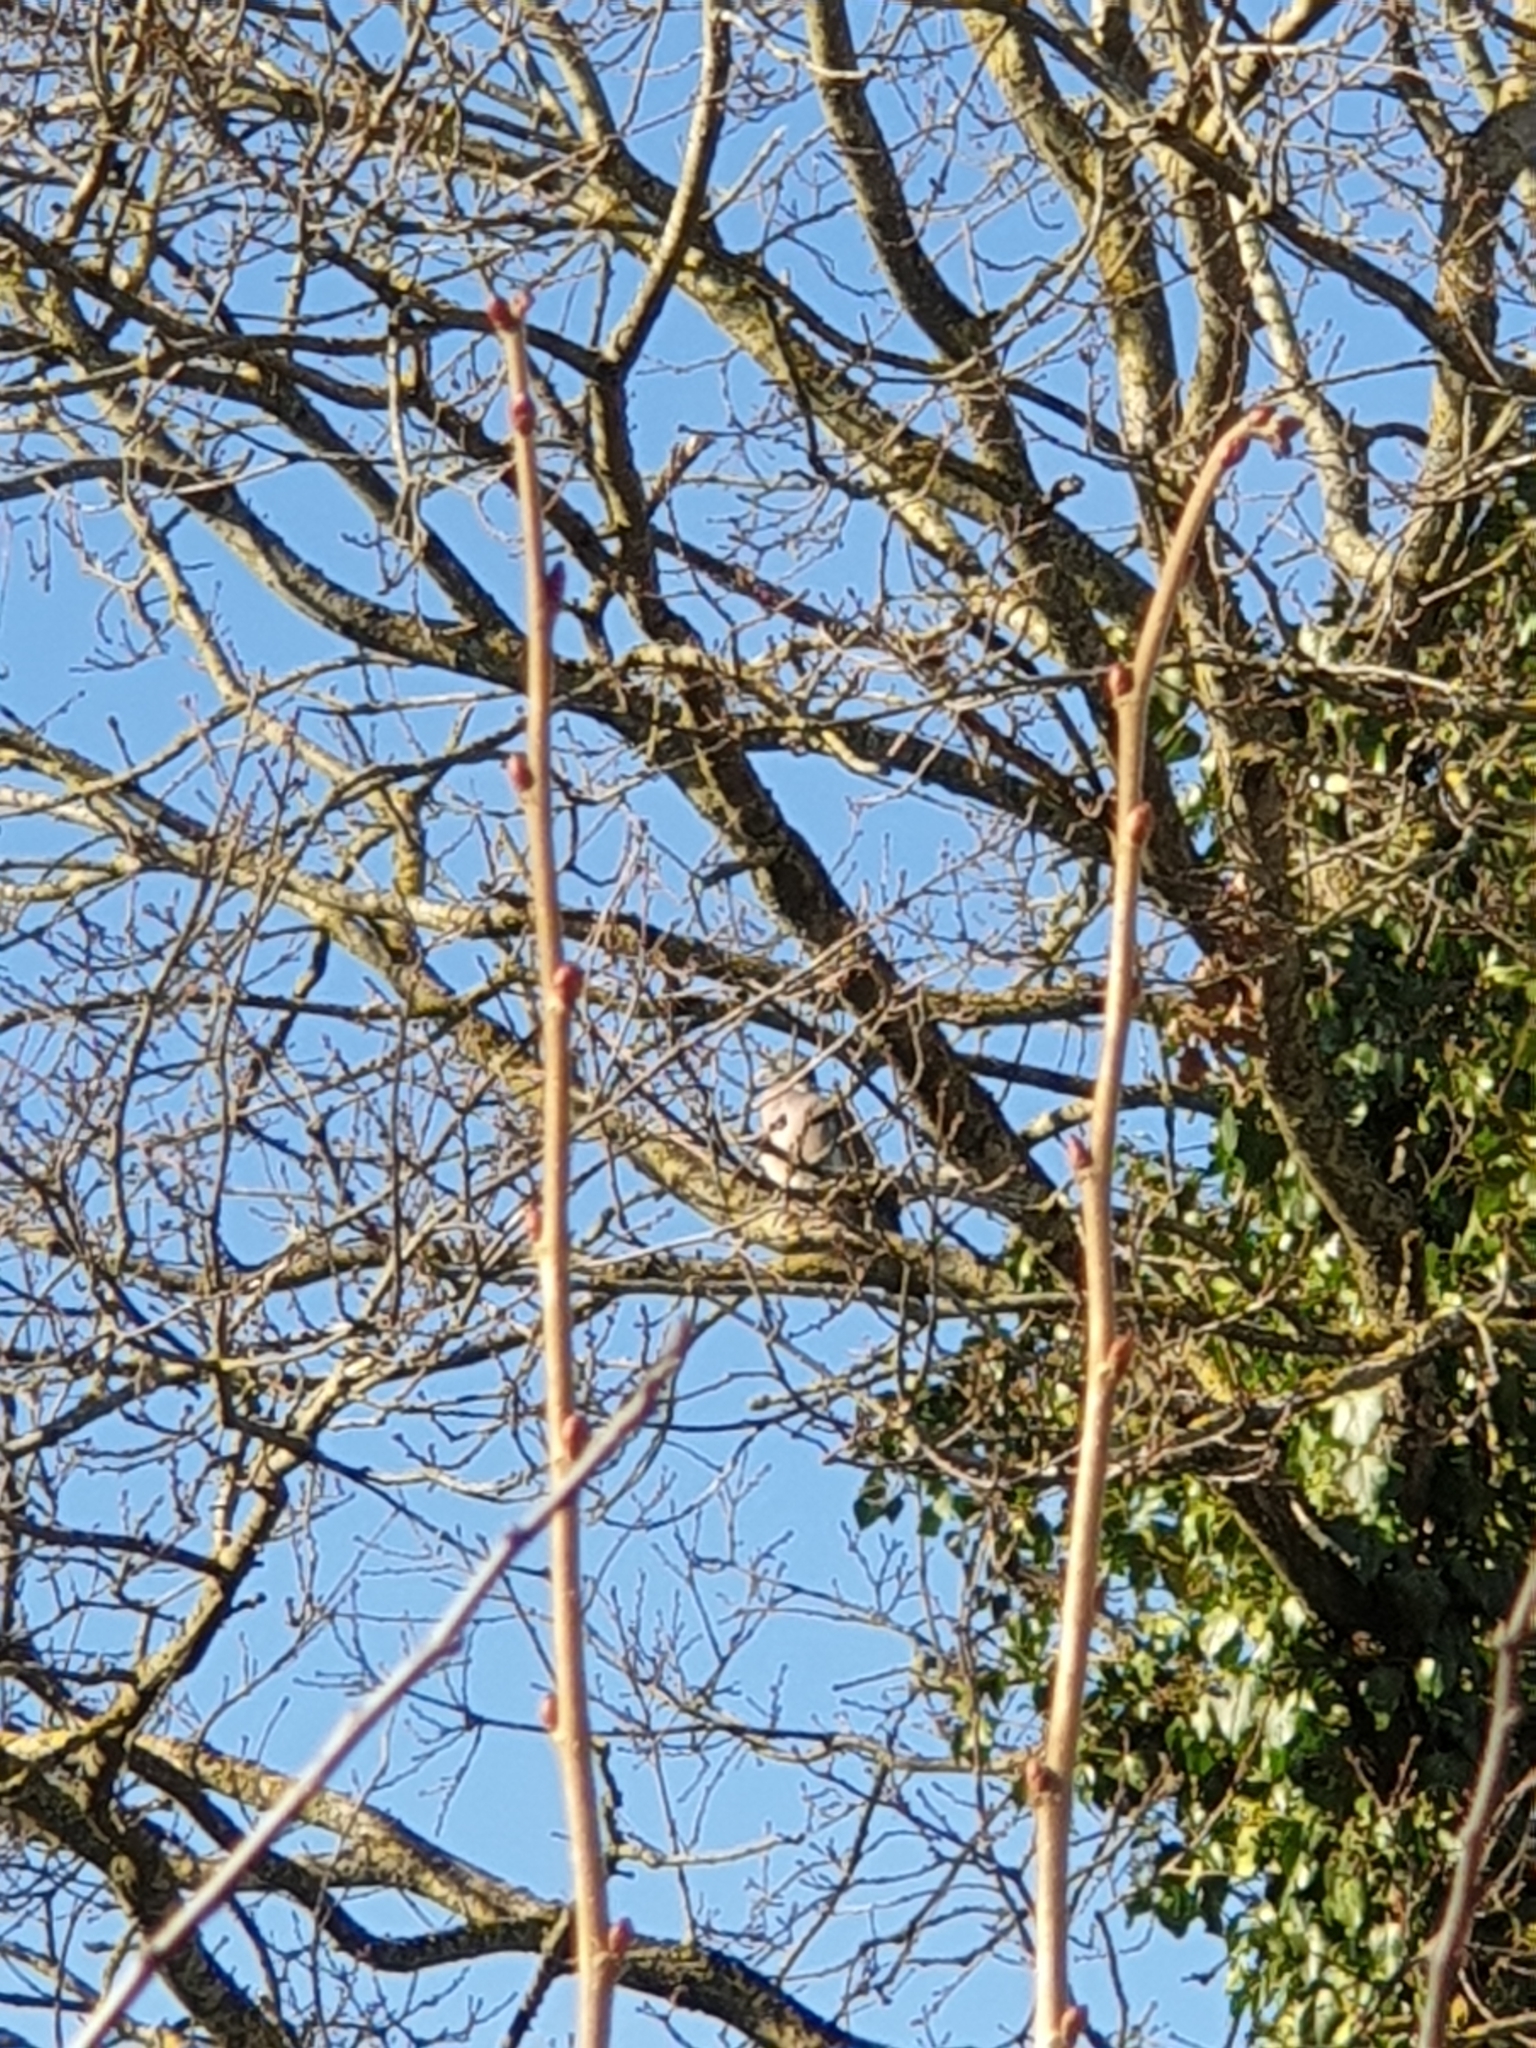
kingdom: Animalia
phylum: Chordata
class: Aves
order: Columbiformes
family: Columbidae
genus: Columba
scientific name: Columba palumbus
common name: Common wood pigeon
